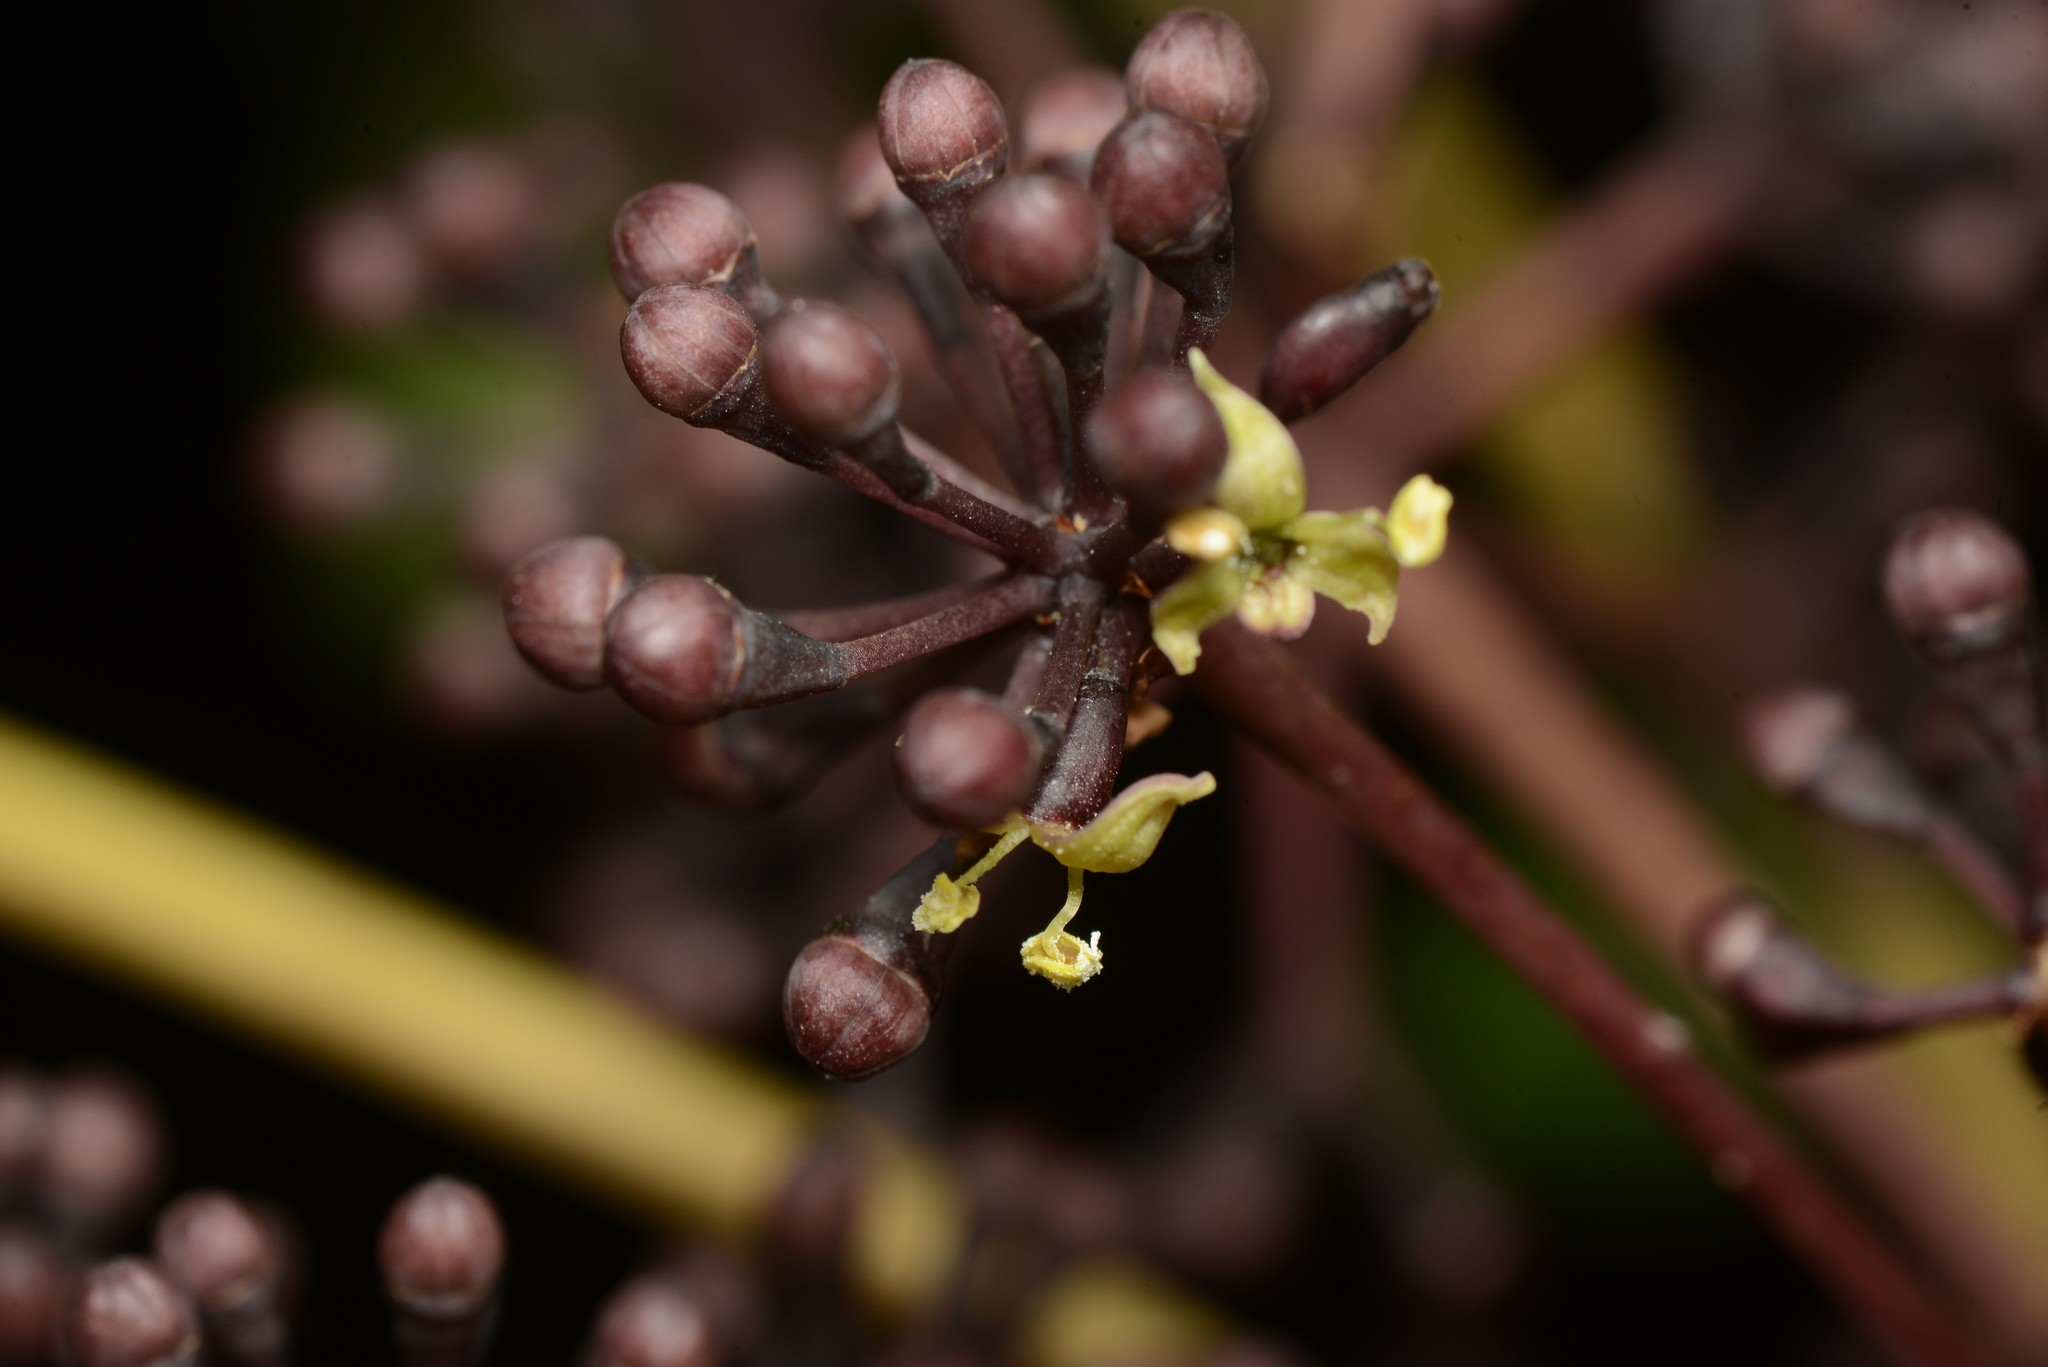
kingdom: Plantae
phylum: Tracheophyta
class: Magnoliopsida
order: Apiales
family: Araliaceae
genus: Neopanax
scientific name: Neopanax arboreus
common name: Five-fingers
